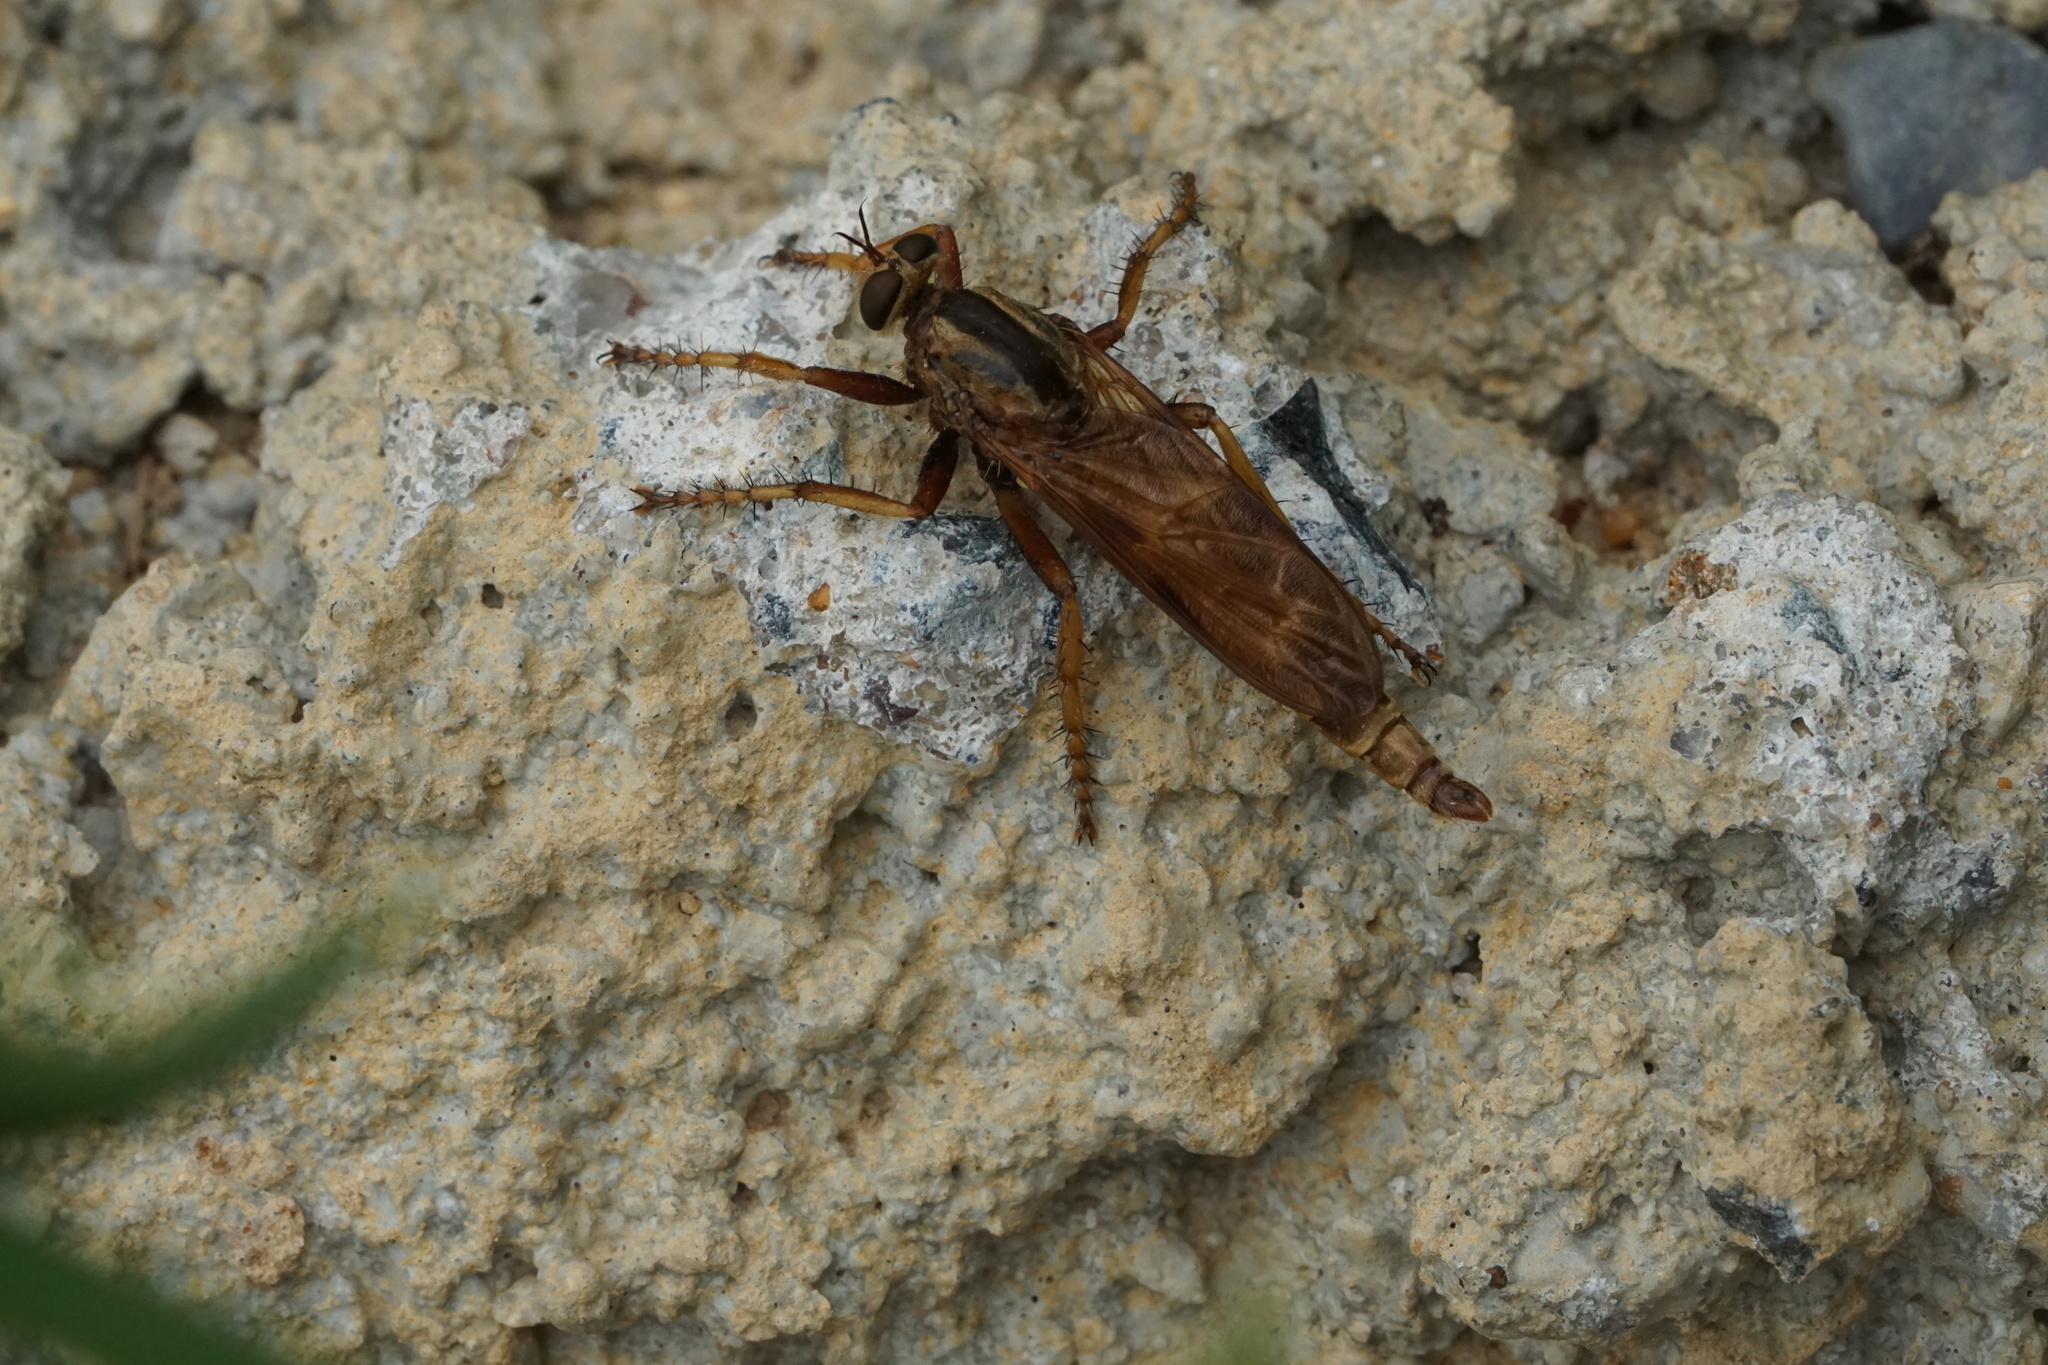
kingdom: Animalia
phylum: Arthropoda
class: Insecta
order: Diptera
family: Asilidae
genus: Asilus
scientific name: Asilus sericeus
